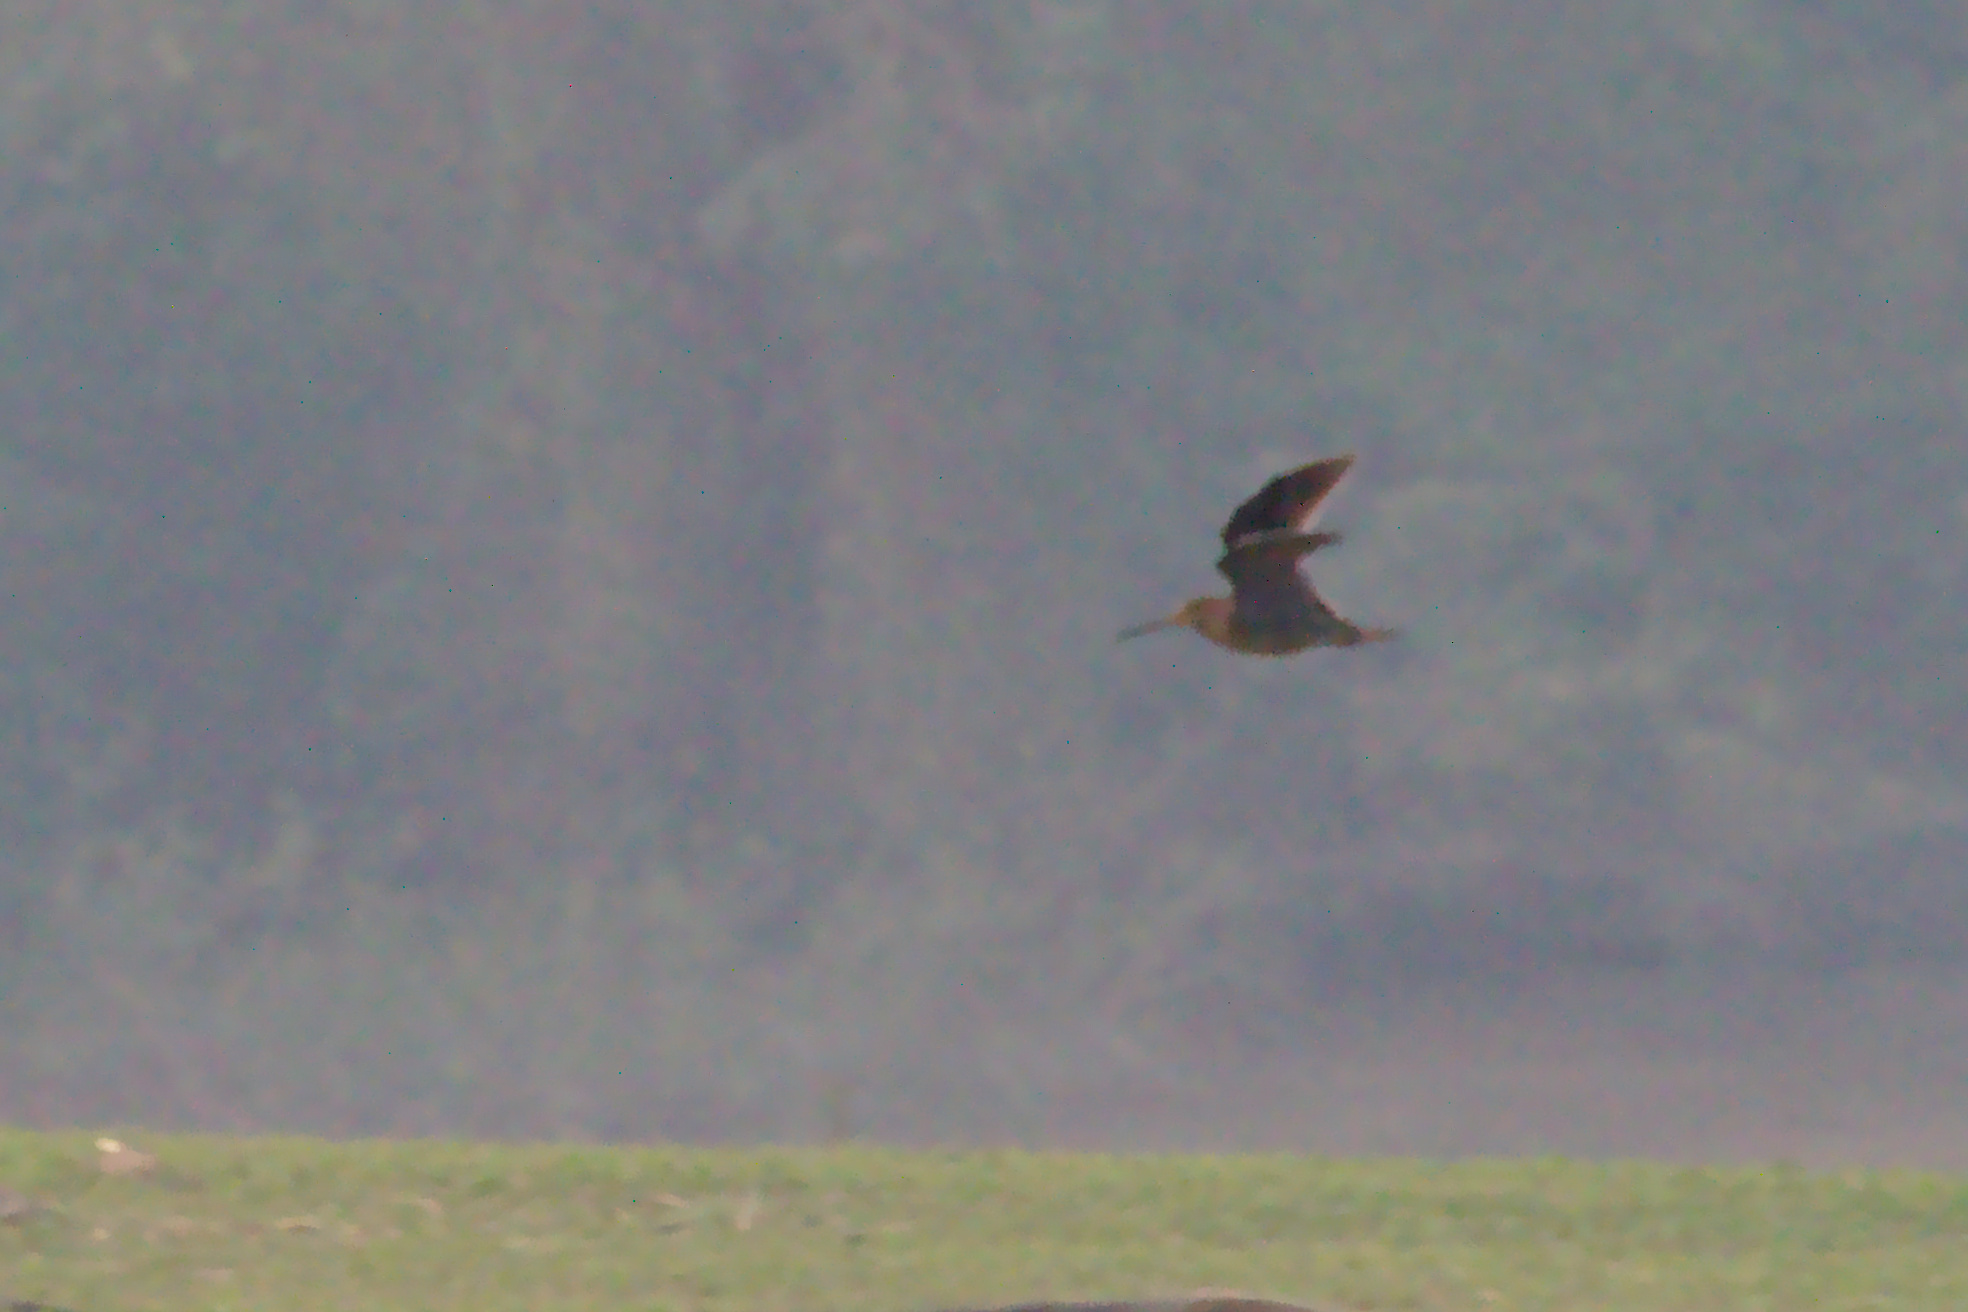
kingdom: Animalia
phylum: Chordata
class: Aves
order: Charadriiformes
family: Scolopacidae
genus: Gallinago
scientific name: Gallinago stenura
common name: Pin-tailed snipe
